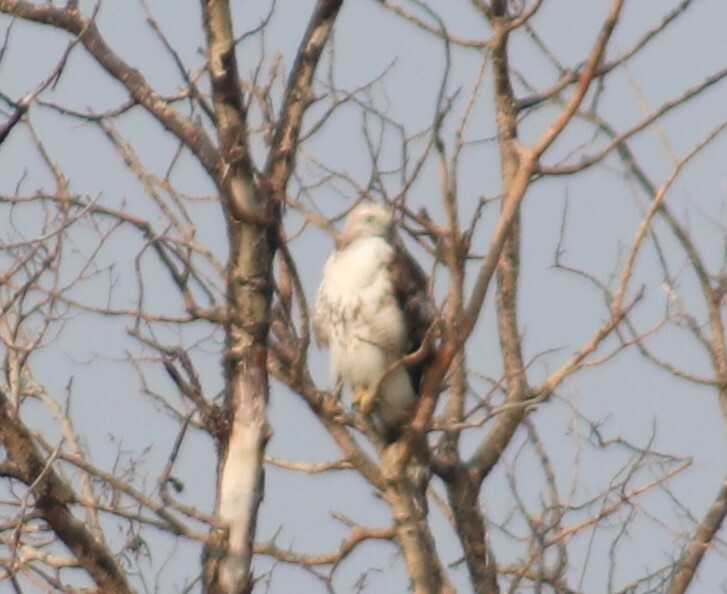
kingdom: Animalia
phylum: Chordata
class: Aves
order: Accipitriformes
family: Accipitridae
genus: Buteo
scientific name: Buteo jamaicensis
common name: Red-tailed hawk
